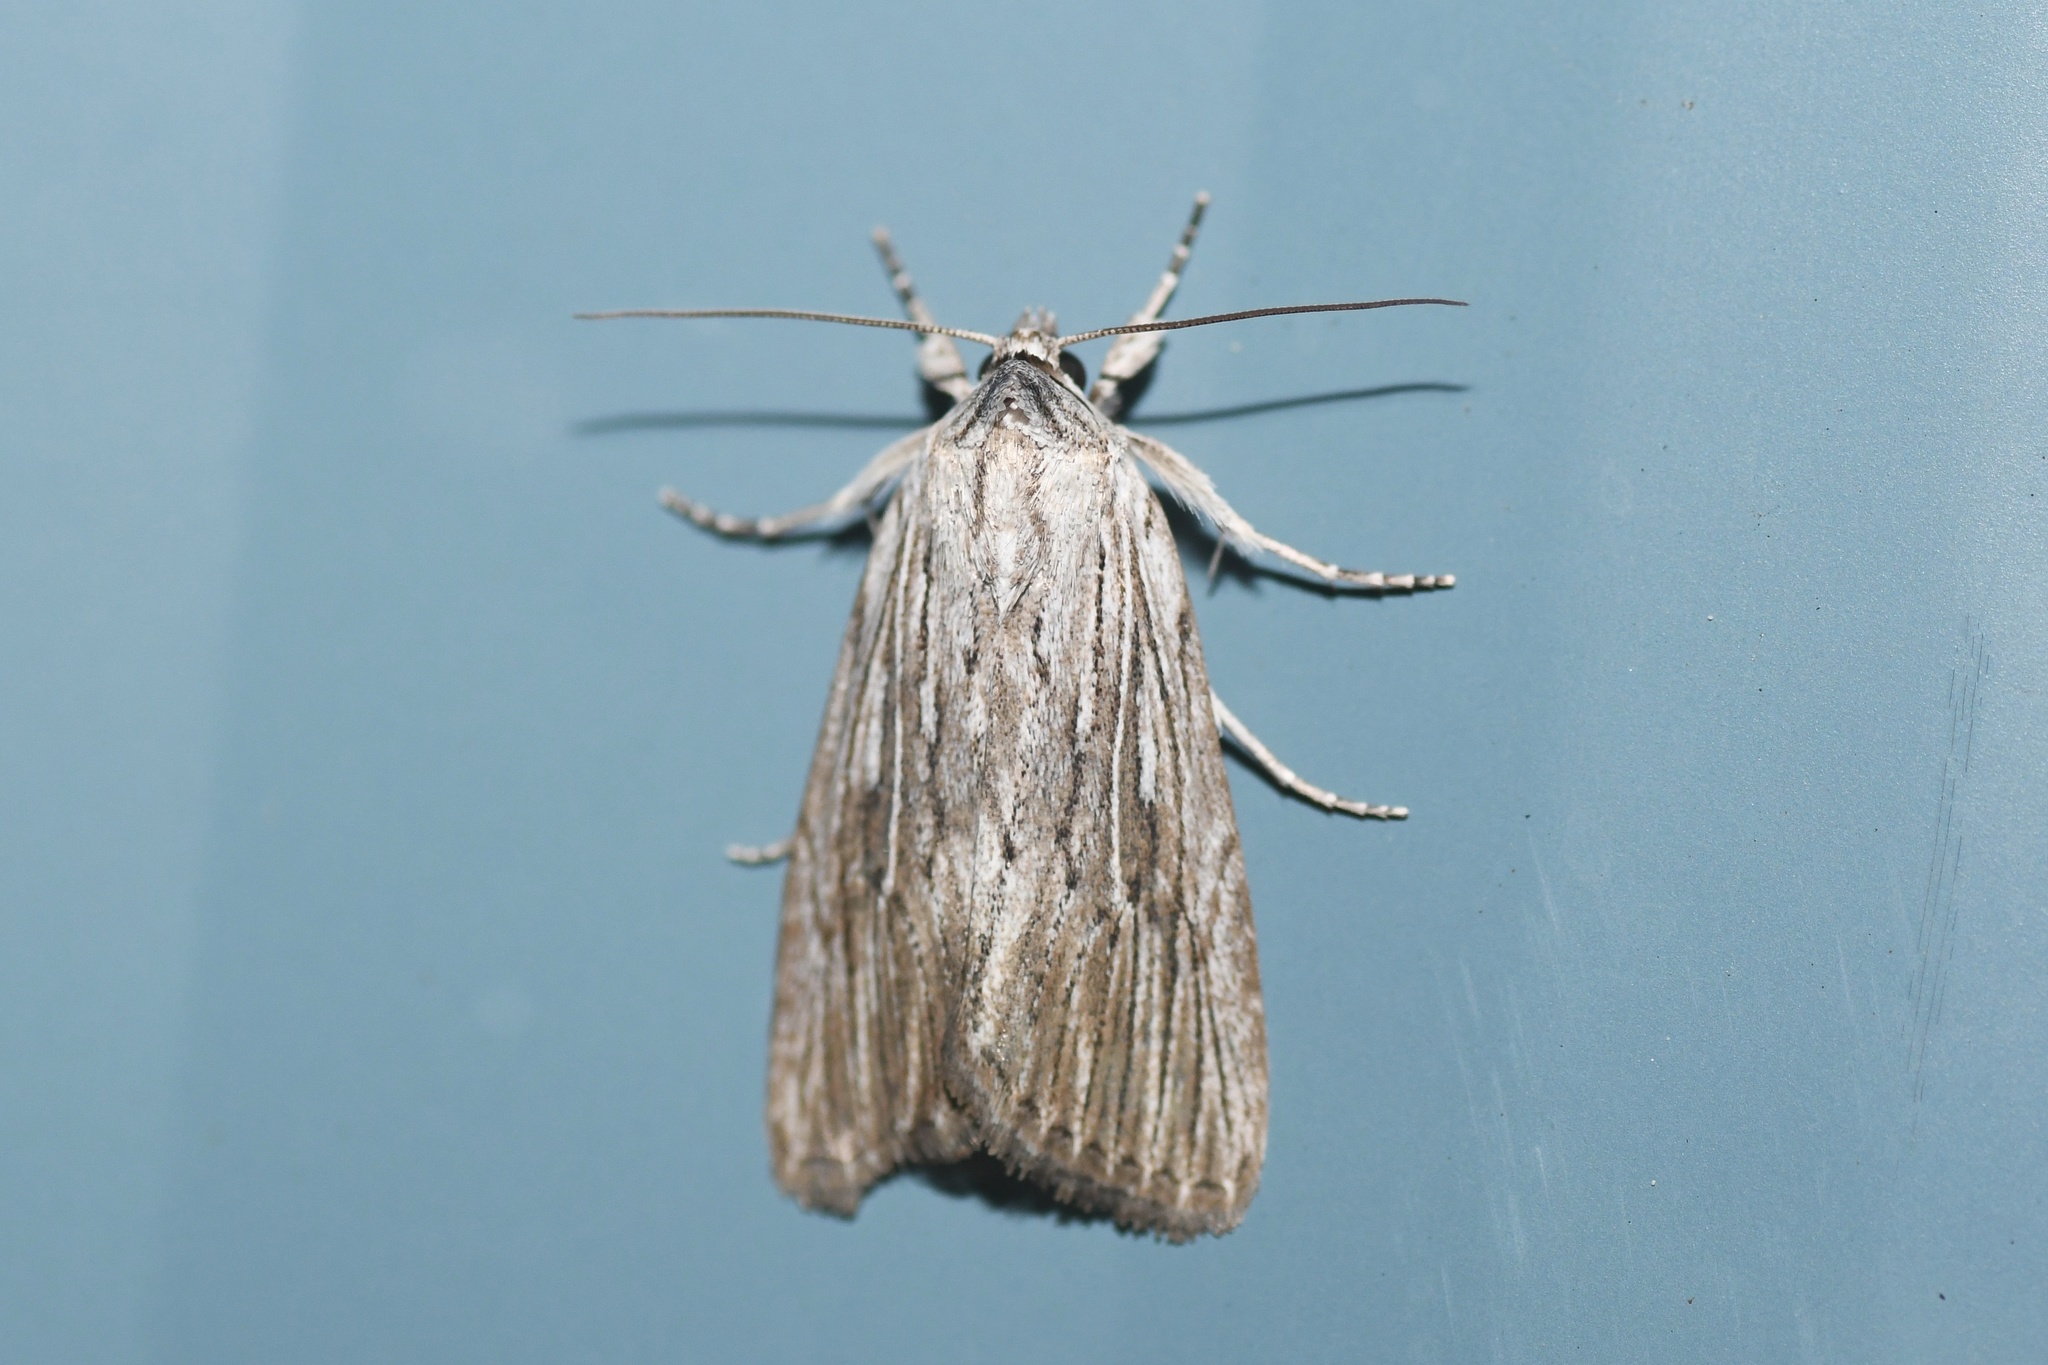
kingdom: Animalia
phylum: Arthropoda
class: Insecta
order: Lepidoptera
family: Noctuidae
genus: Catabena
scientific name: Catabena lineolata
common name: Fine-lined sallow
